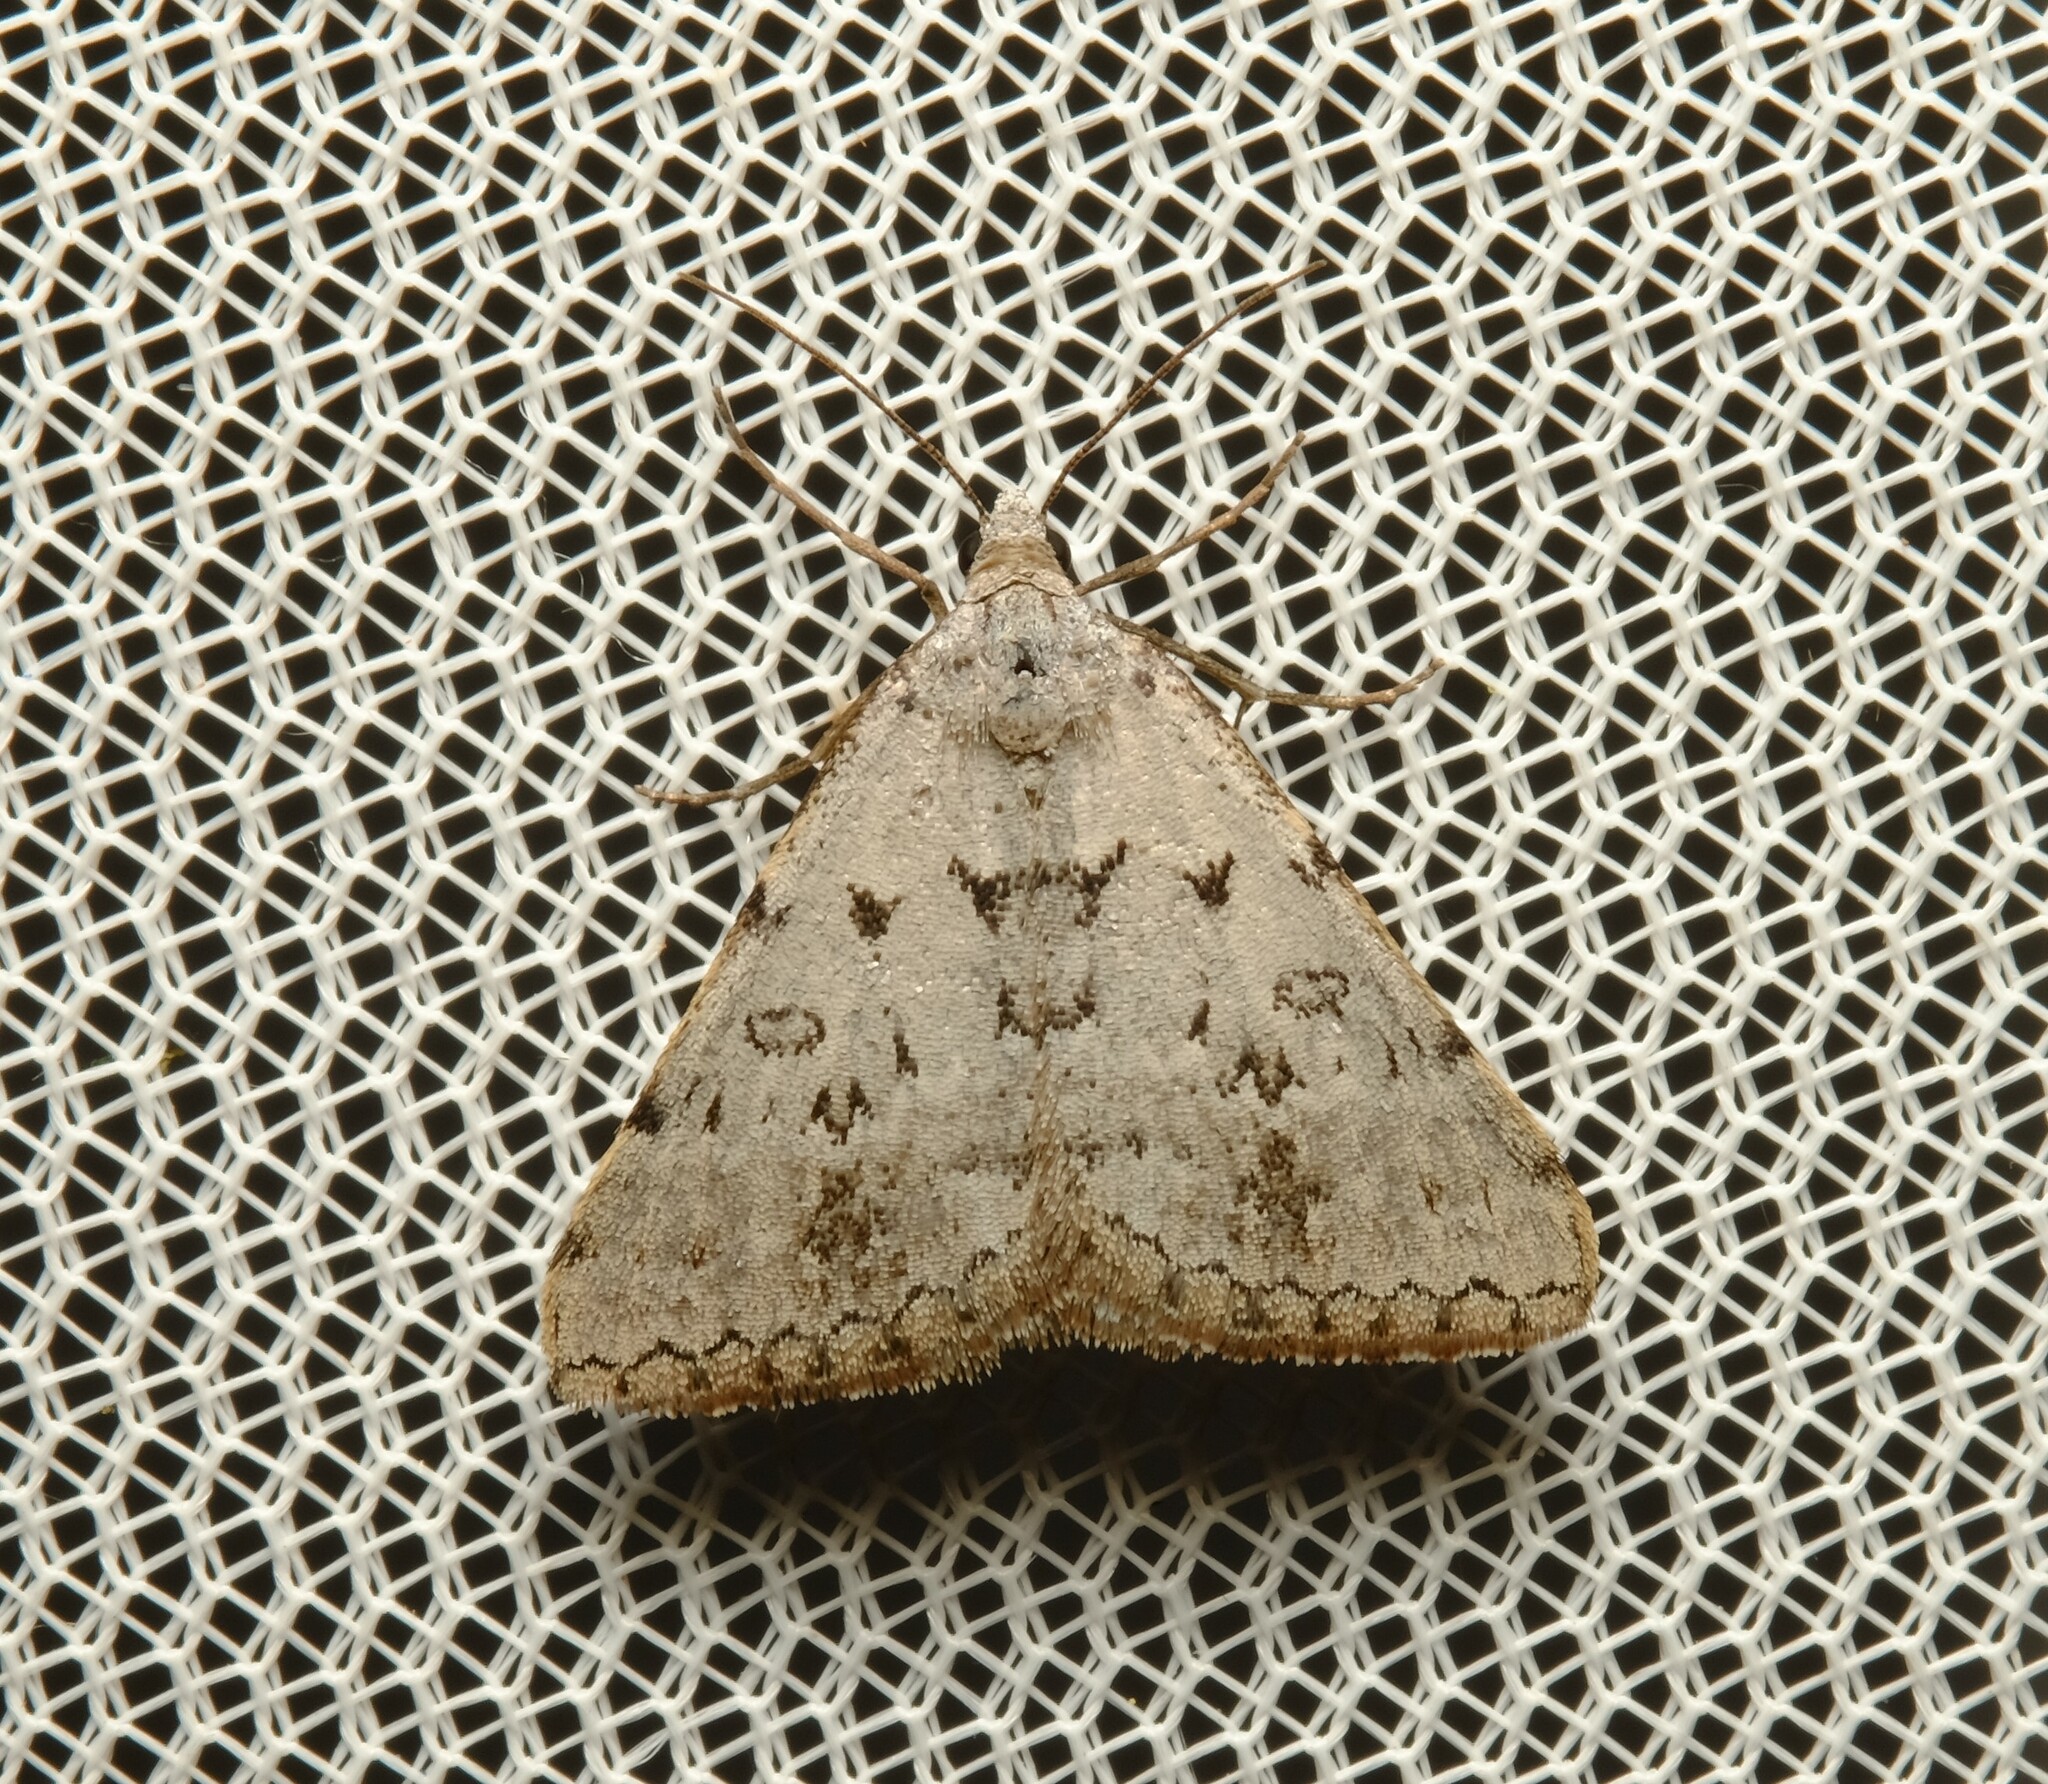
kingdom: Animalia
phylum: Arthropoda
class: Insecta
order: Lepidoptera
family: Geometridae
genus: Dichromodes
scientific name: Dichromodes indicataria
